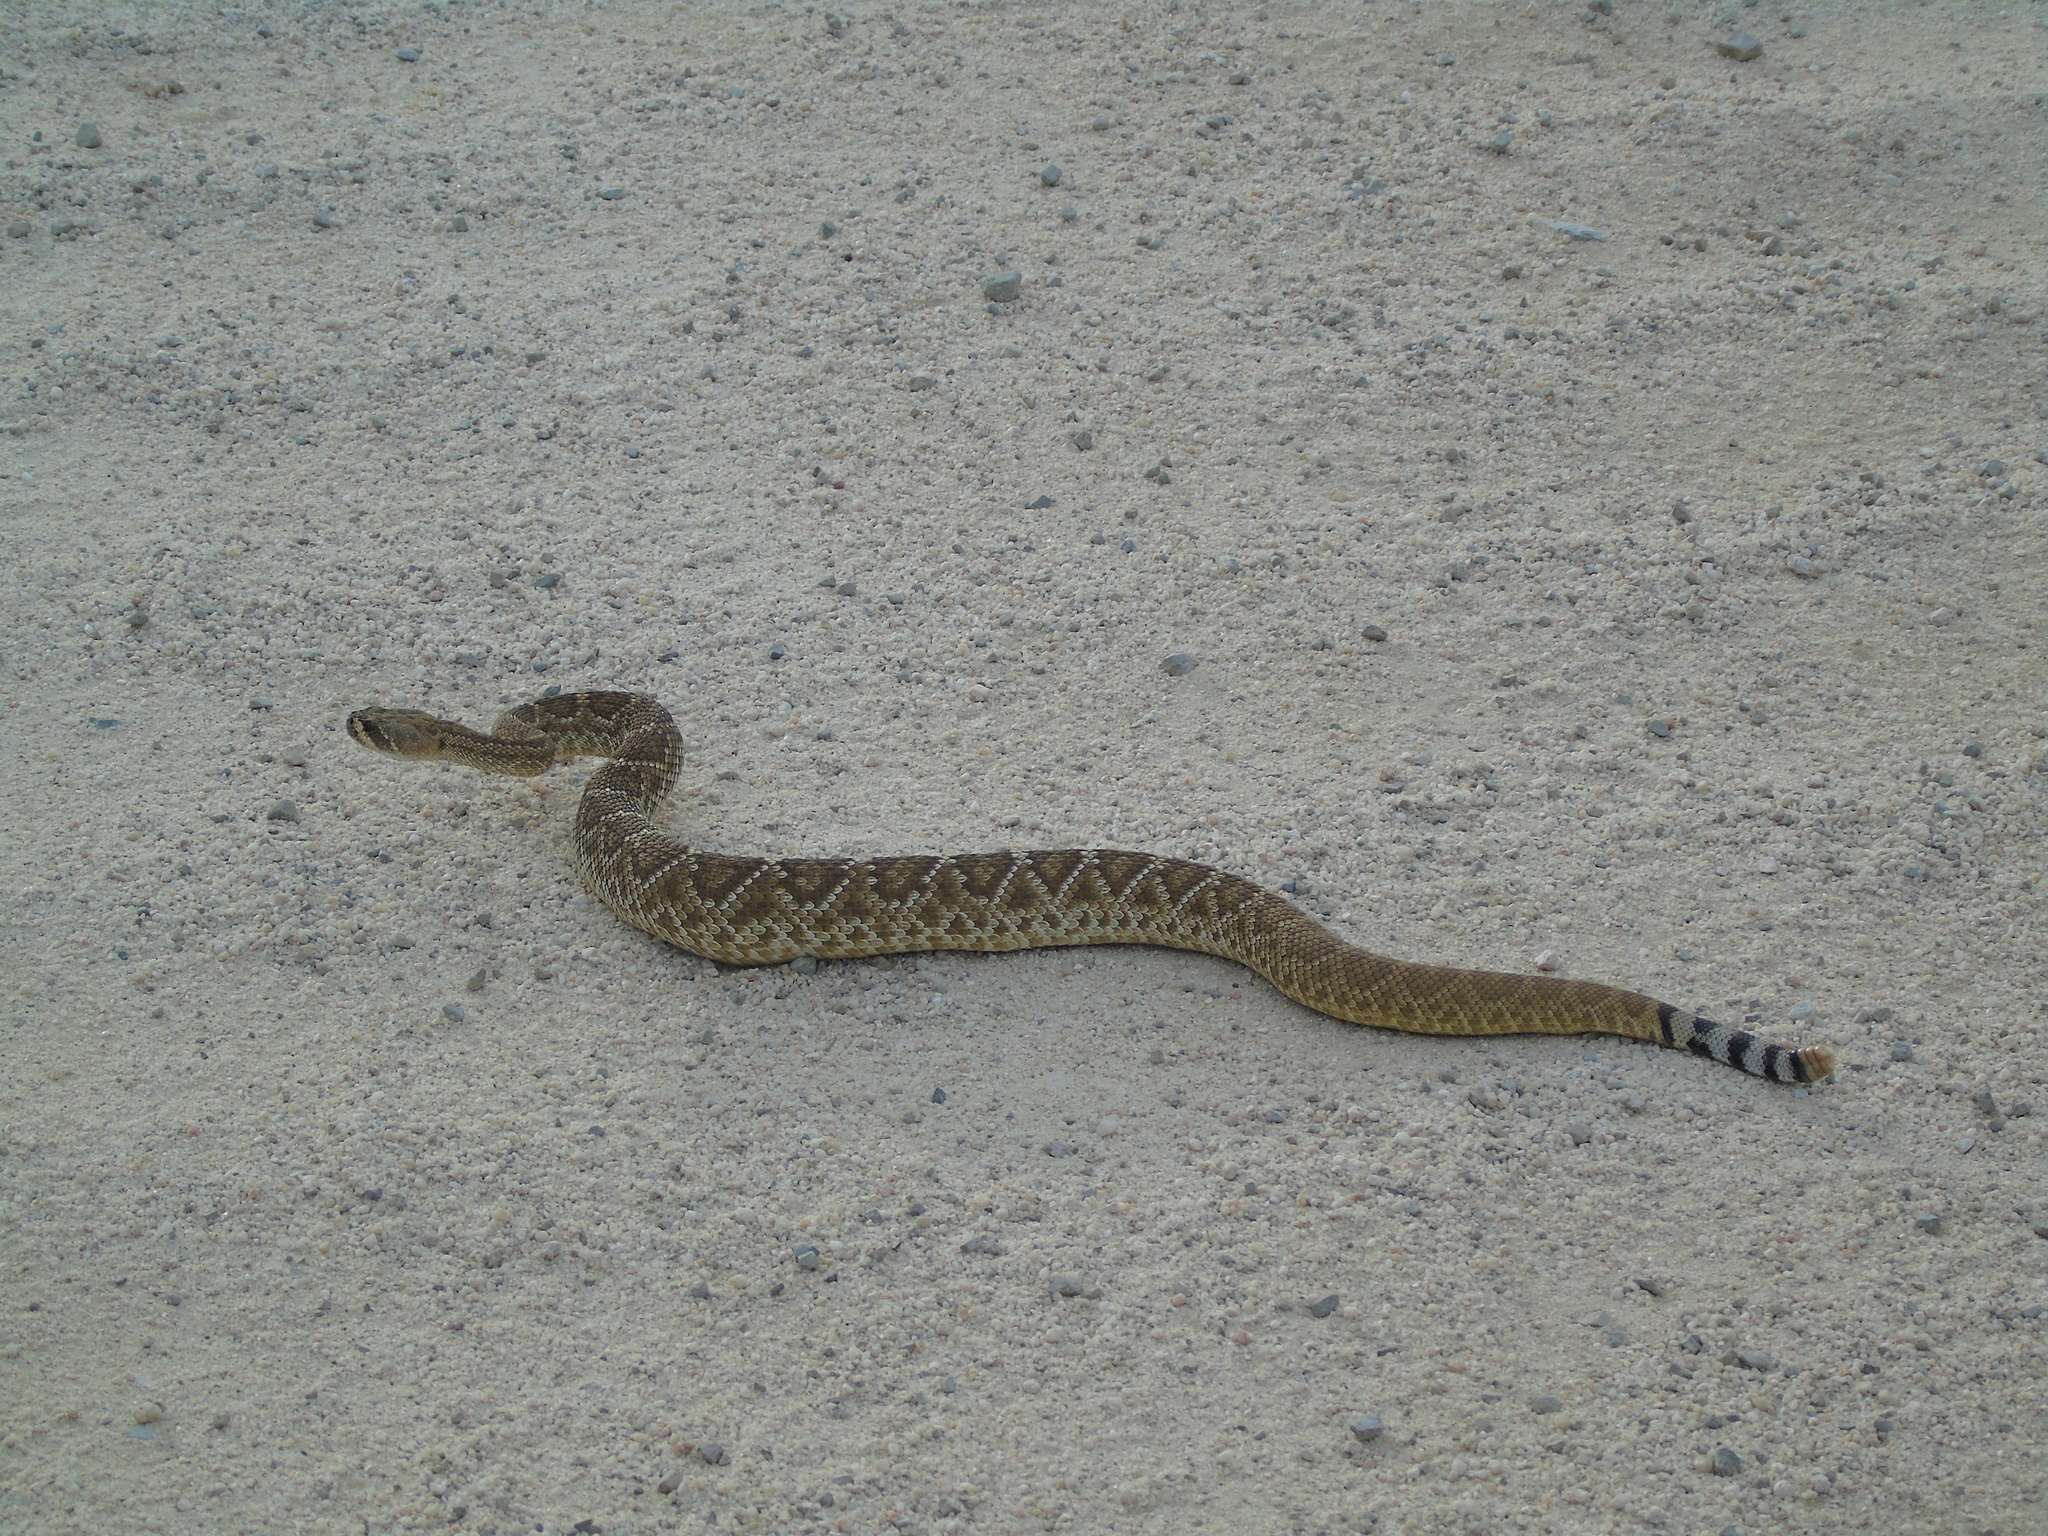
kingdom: Animalia
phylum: Chordata
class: Squamata
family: Viperidae
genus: Crotalus
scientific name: Crotalus ruber
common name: Red diamond rattlesnake
